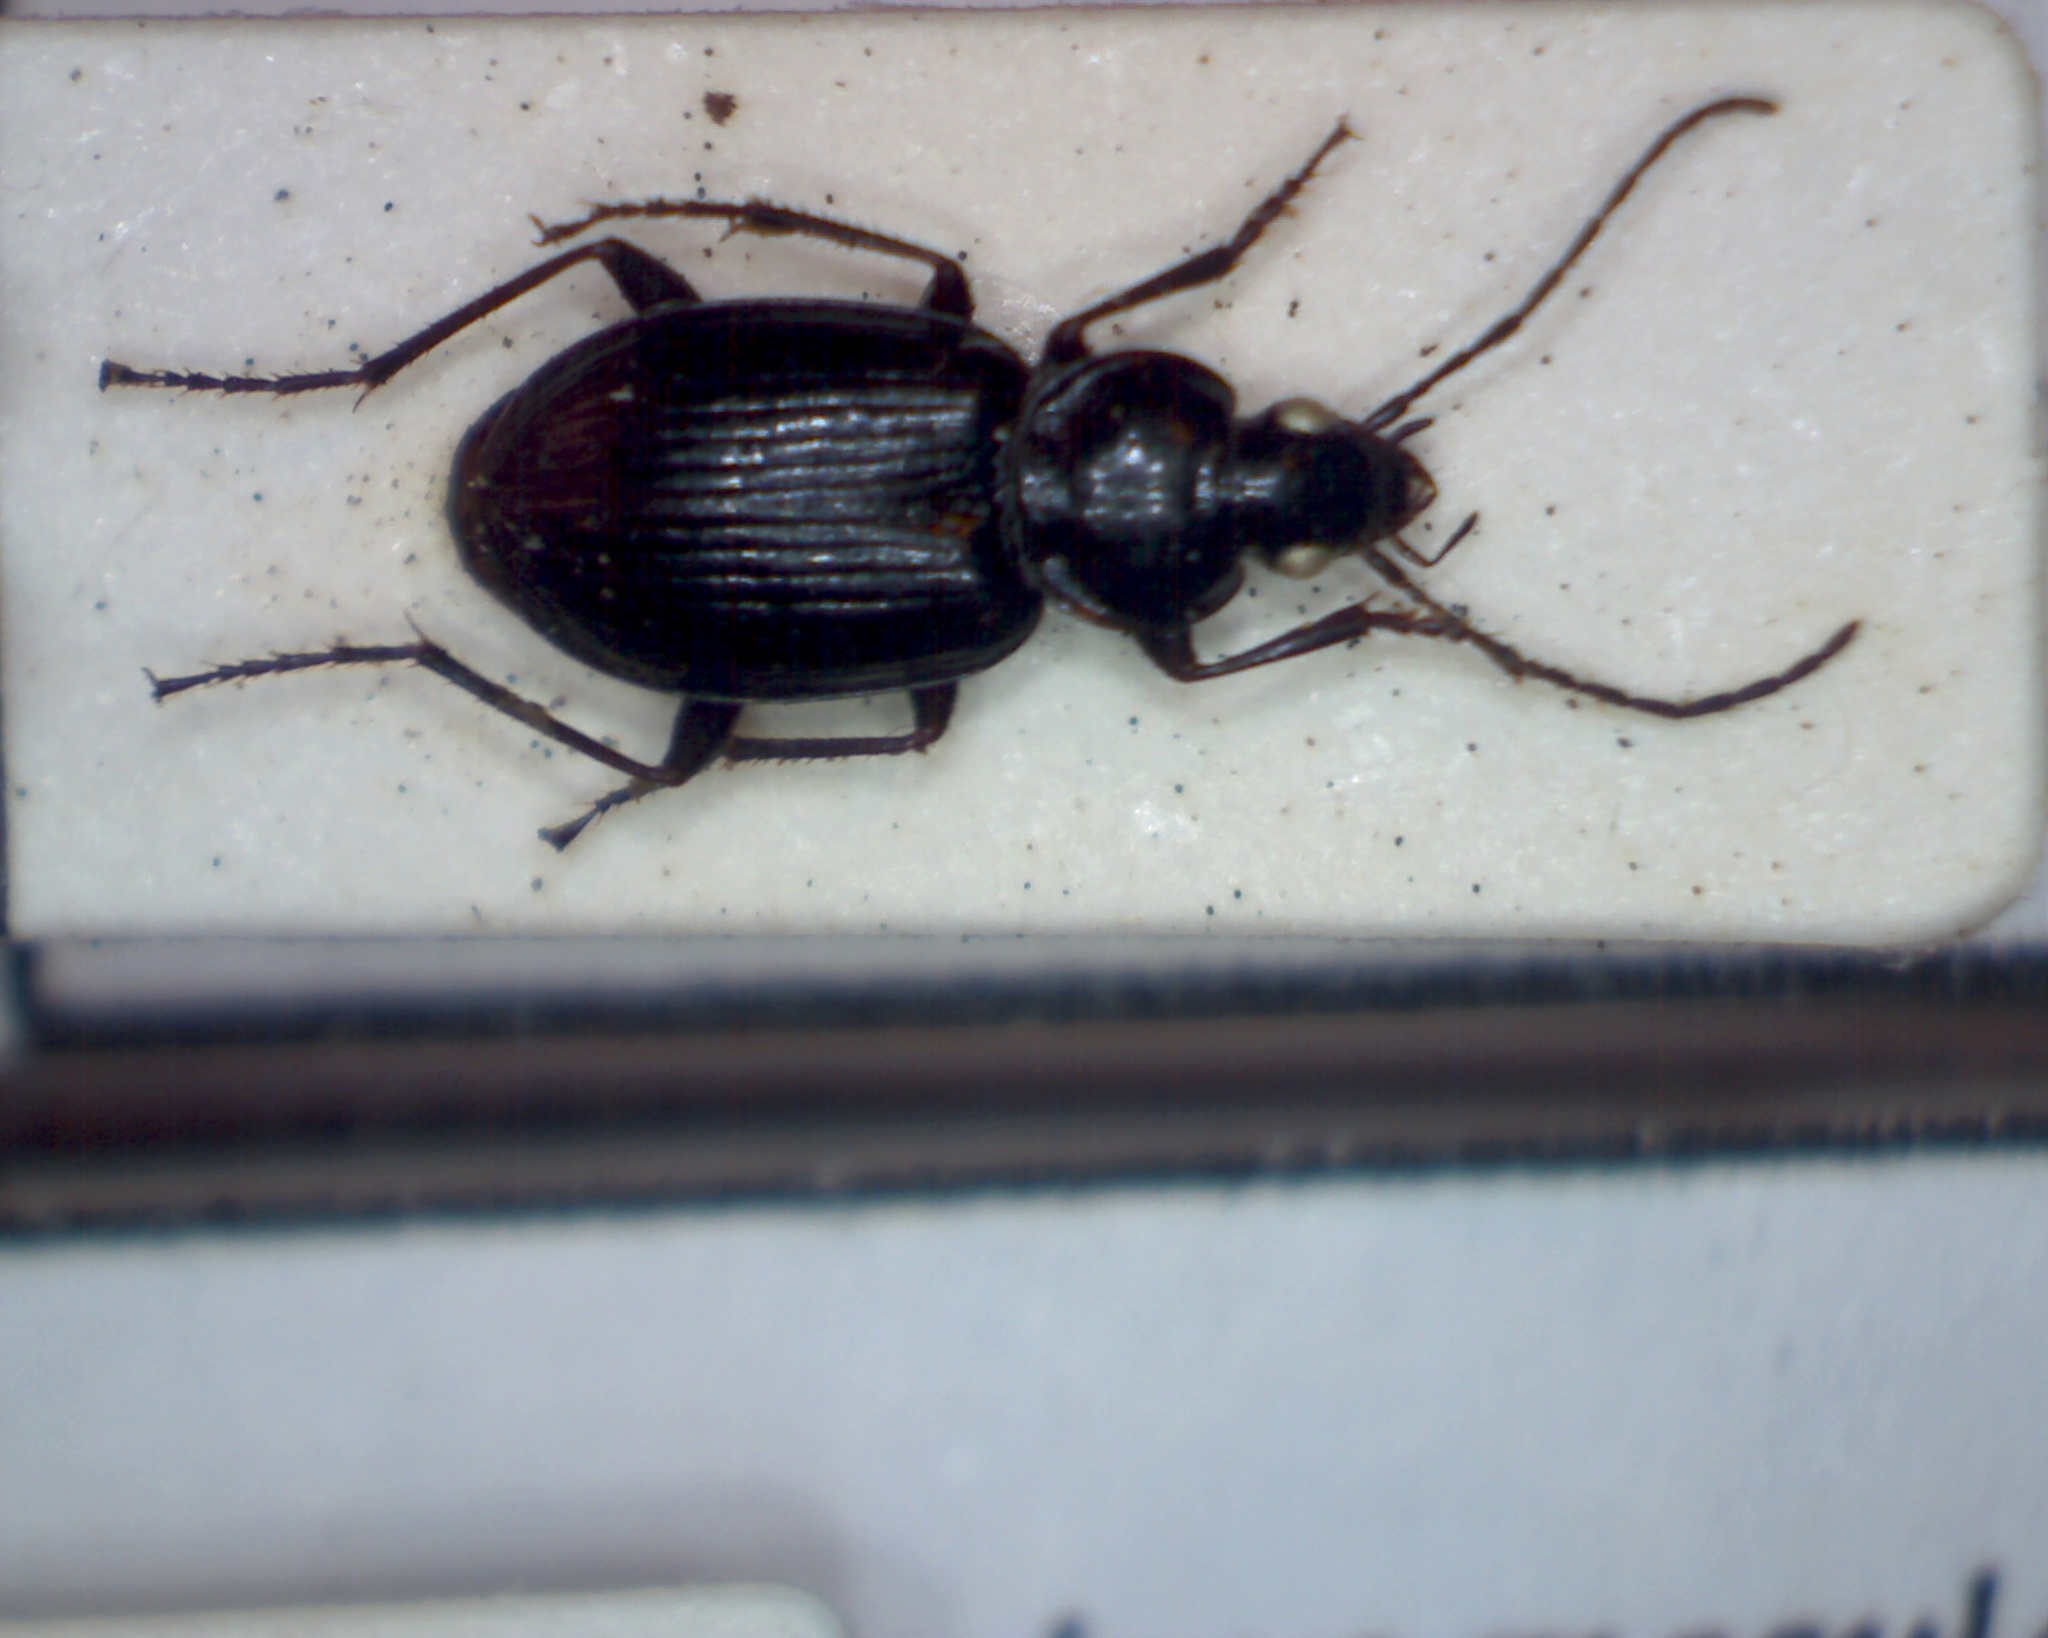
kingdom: Animalia
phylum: Arthropoda
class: Insecta
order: Coleoptera
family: Carabidae
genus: Agonum
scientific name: Agonum duftschmidi
